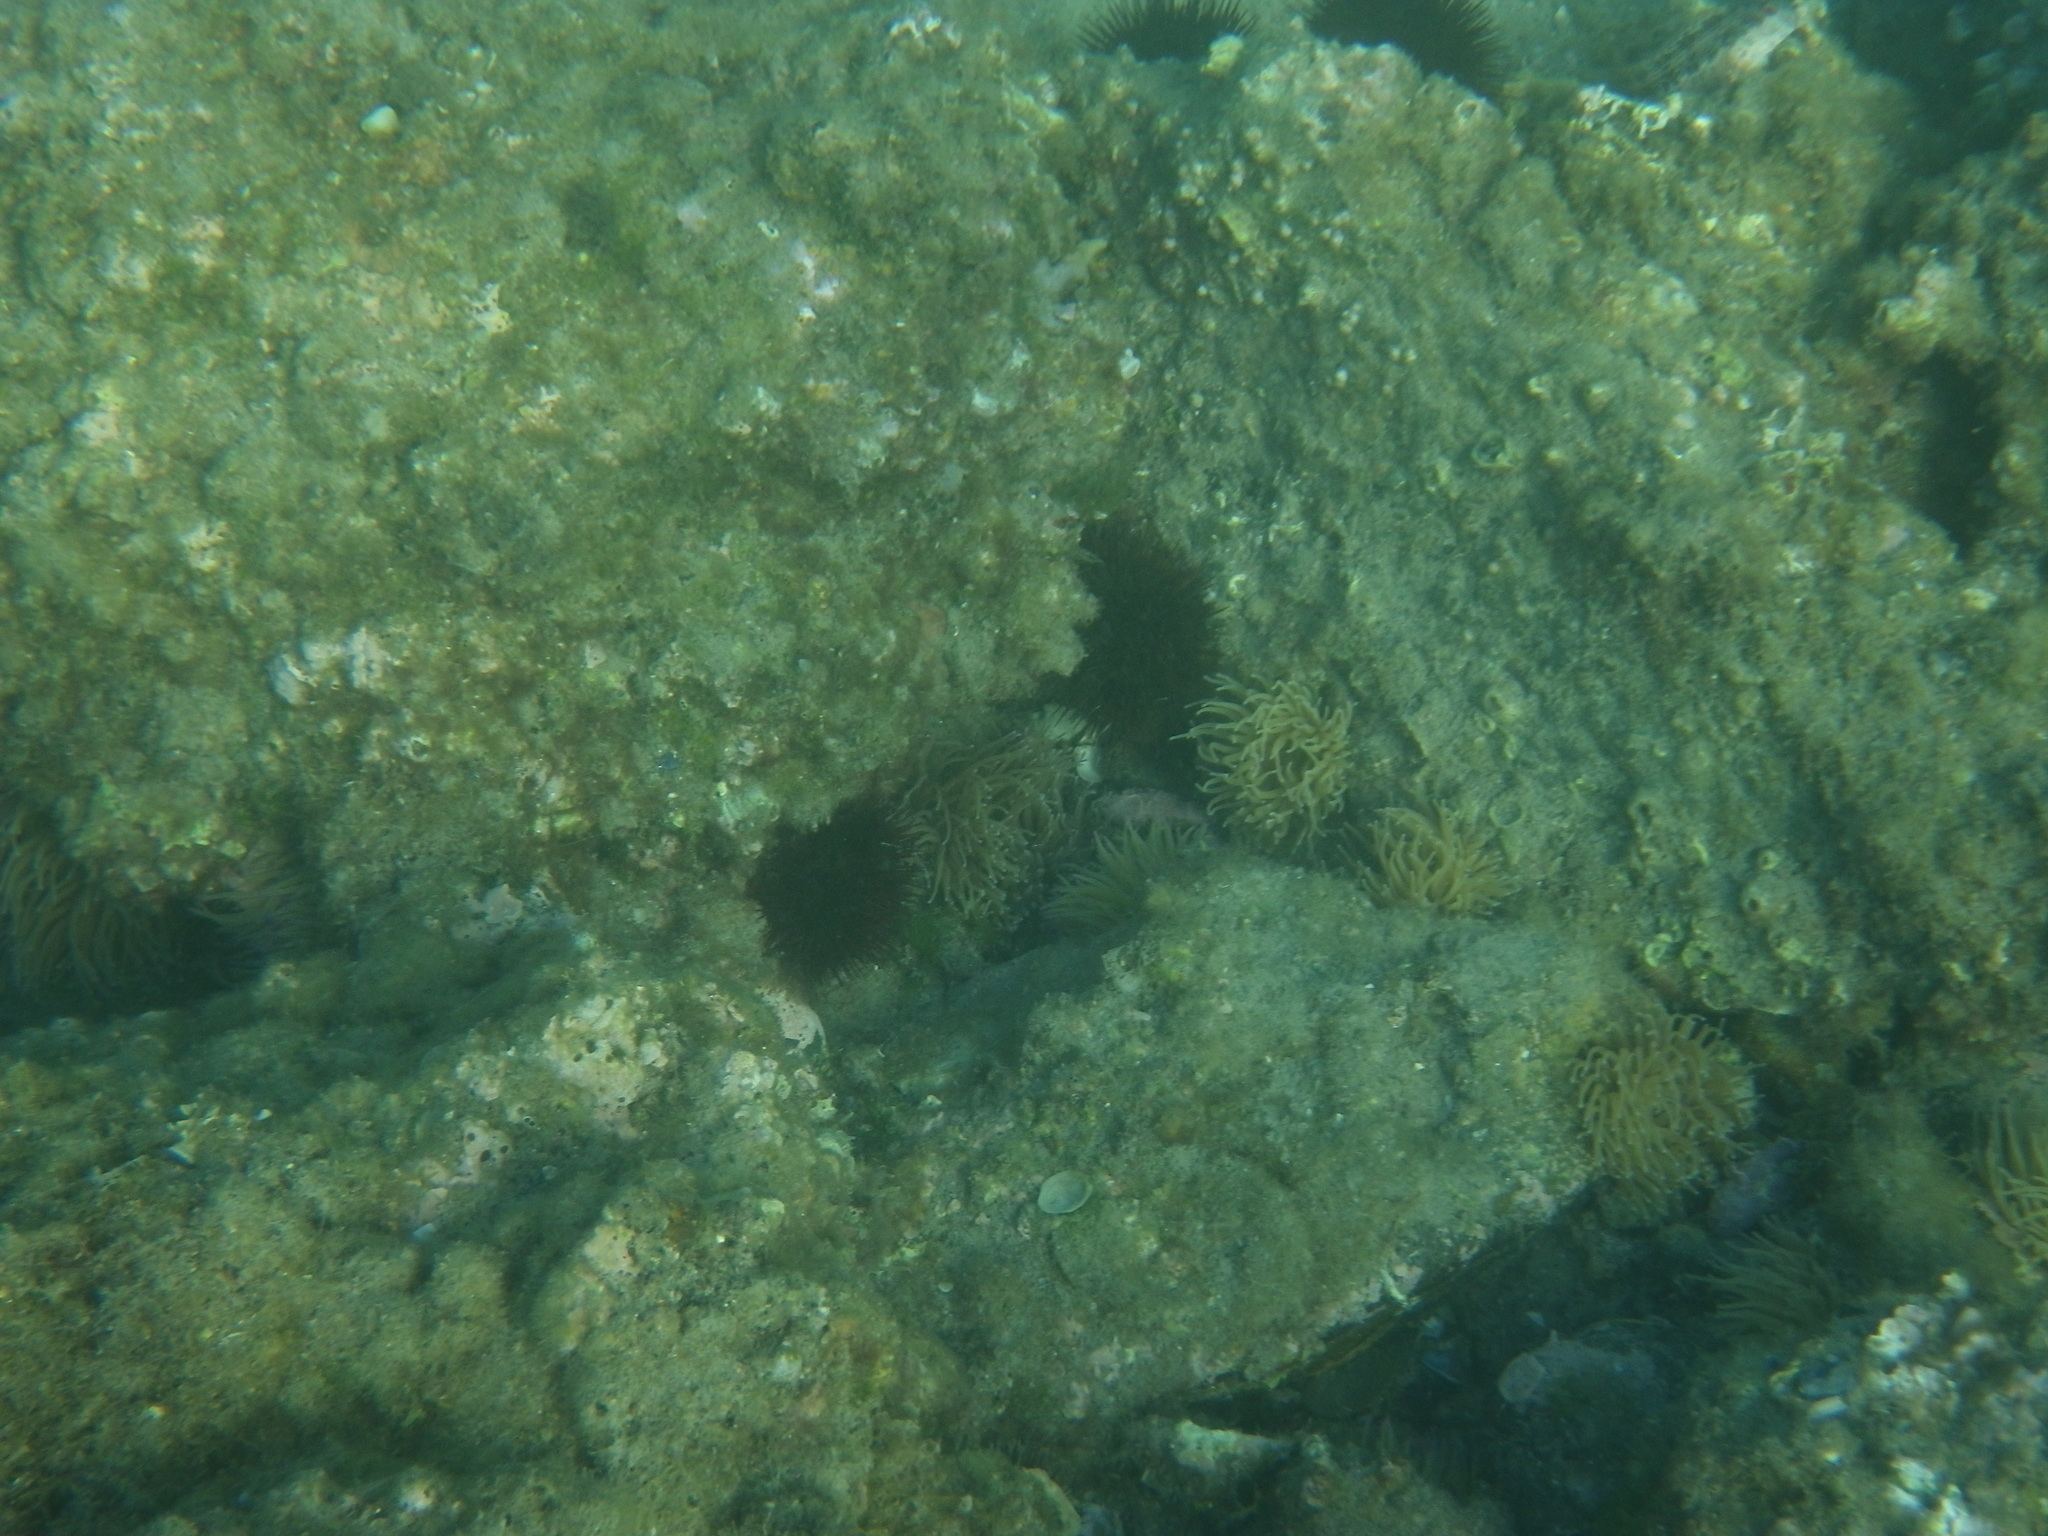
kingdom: Animalia
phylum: Cnidaria
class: Anthozoa
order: Actiniaria
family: Actiniidae
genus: Anemonia
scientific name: Anemonia viridis
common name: Snakelocks anemone
